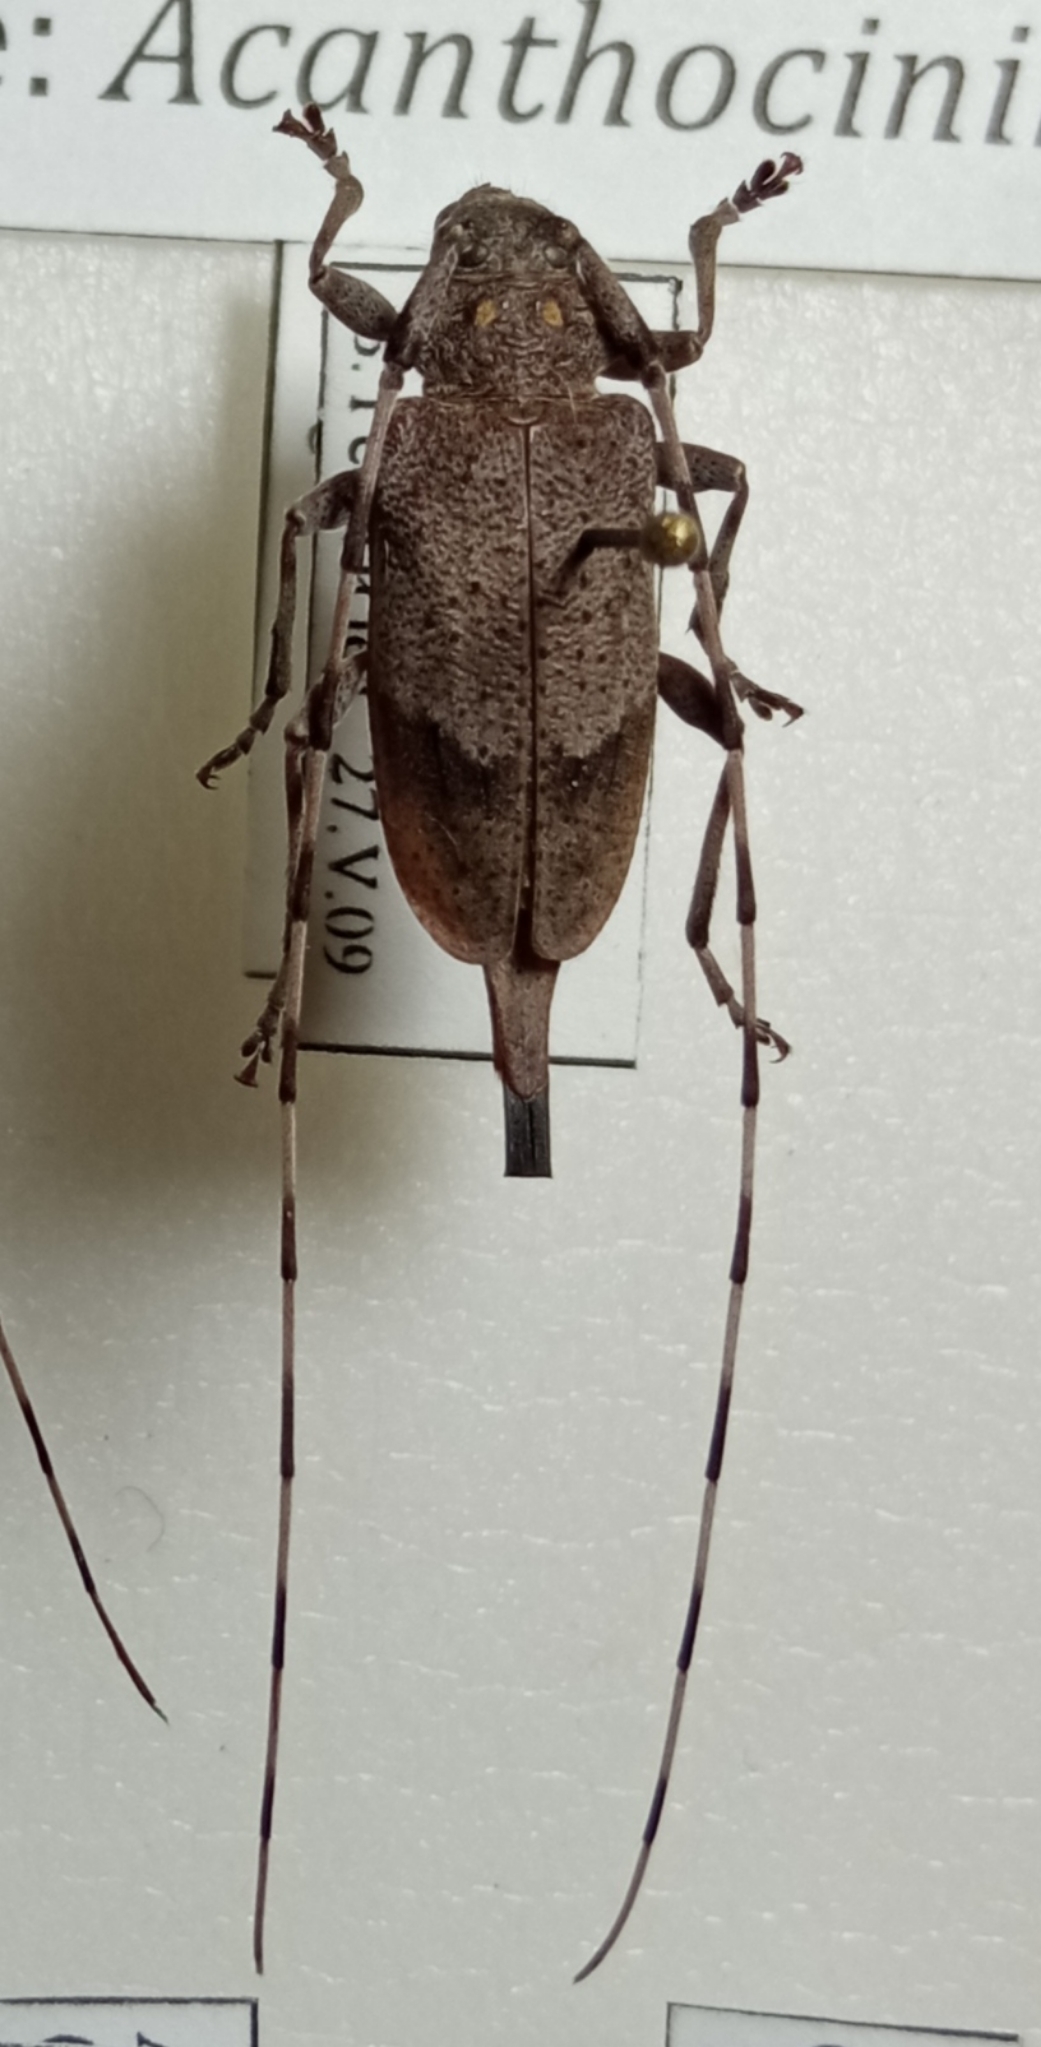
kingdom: Animalia
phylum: Arthropoda
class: Insecta
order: Coleoptera
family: Cerambycidae
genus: Acanthocinus
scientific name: Acanthocinus aedilis
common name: Timberman beetle
